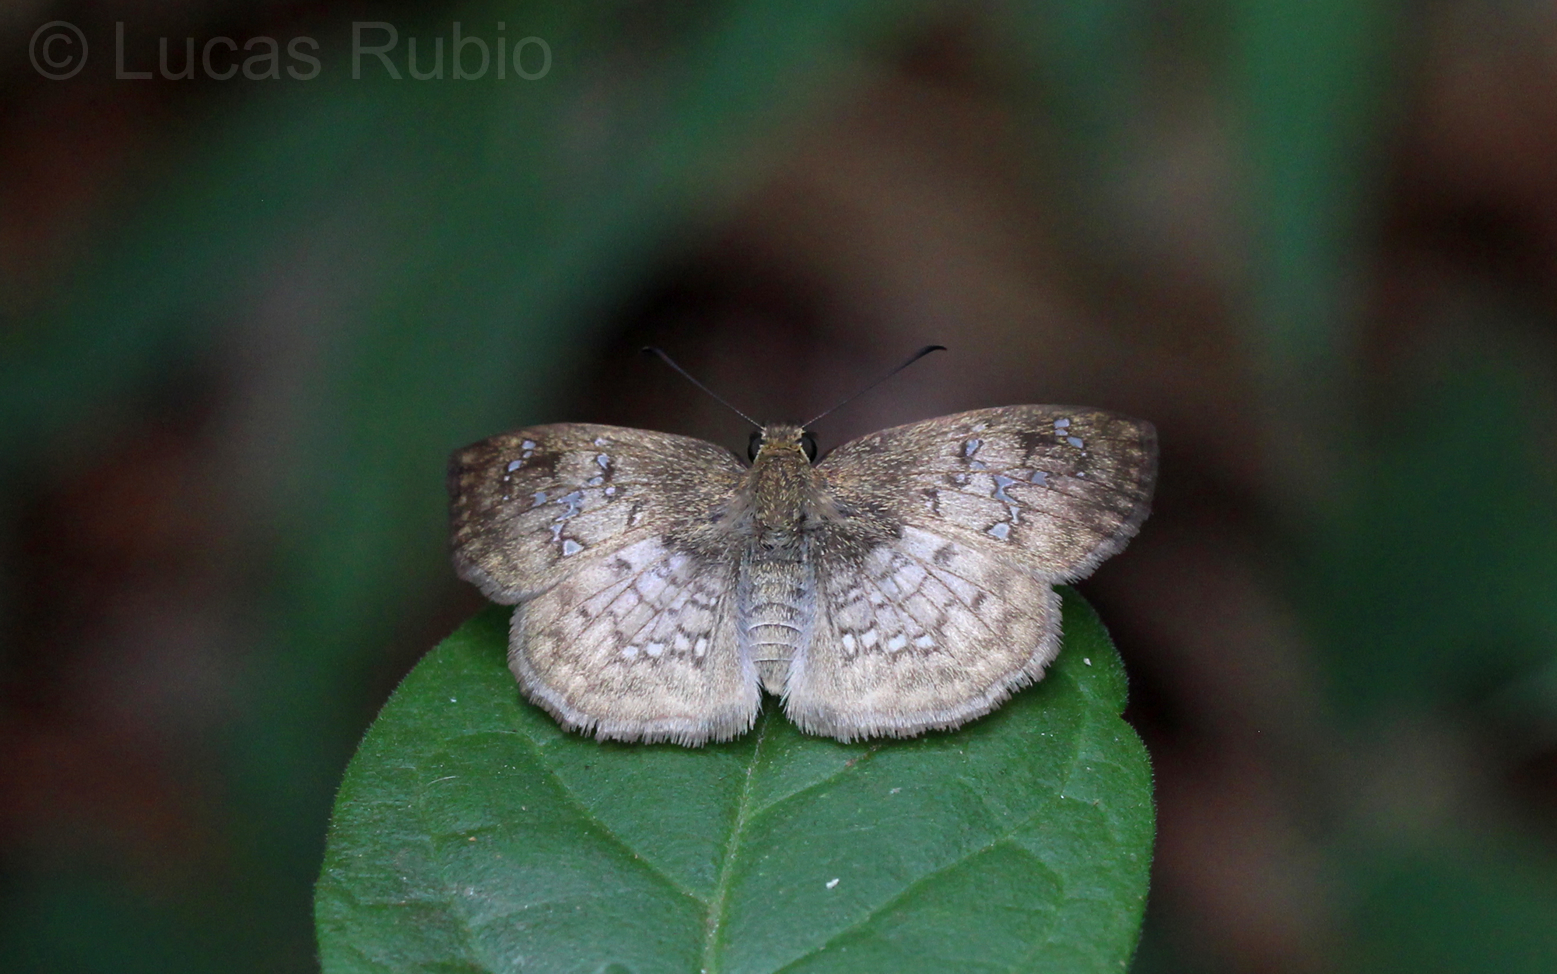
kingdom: Animalia
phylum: Arthropoda
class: Insecta
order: Lepidoptera
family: Hesperiidae
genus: Canesia
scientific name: Canesia canescens
